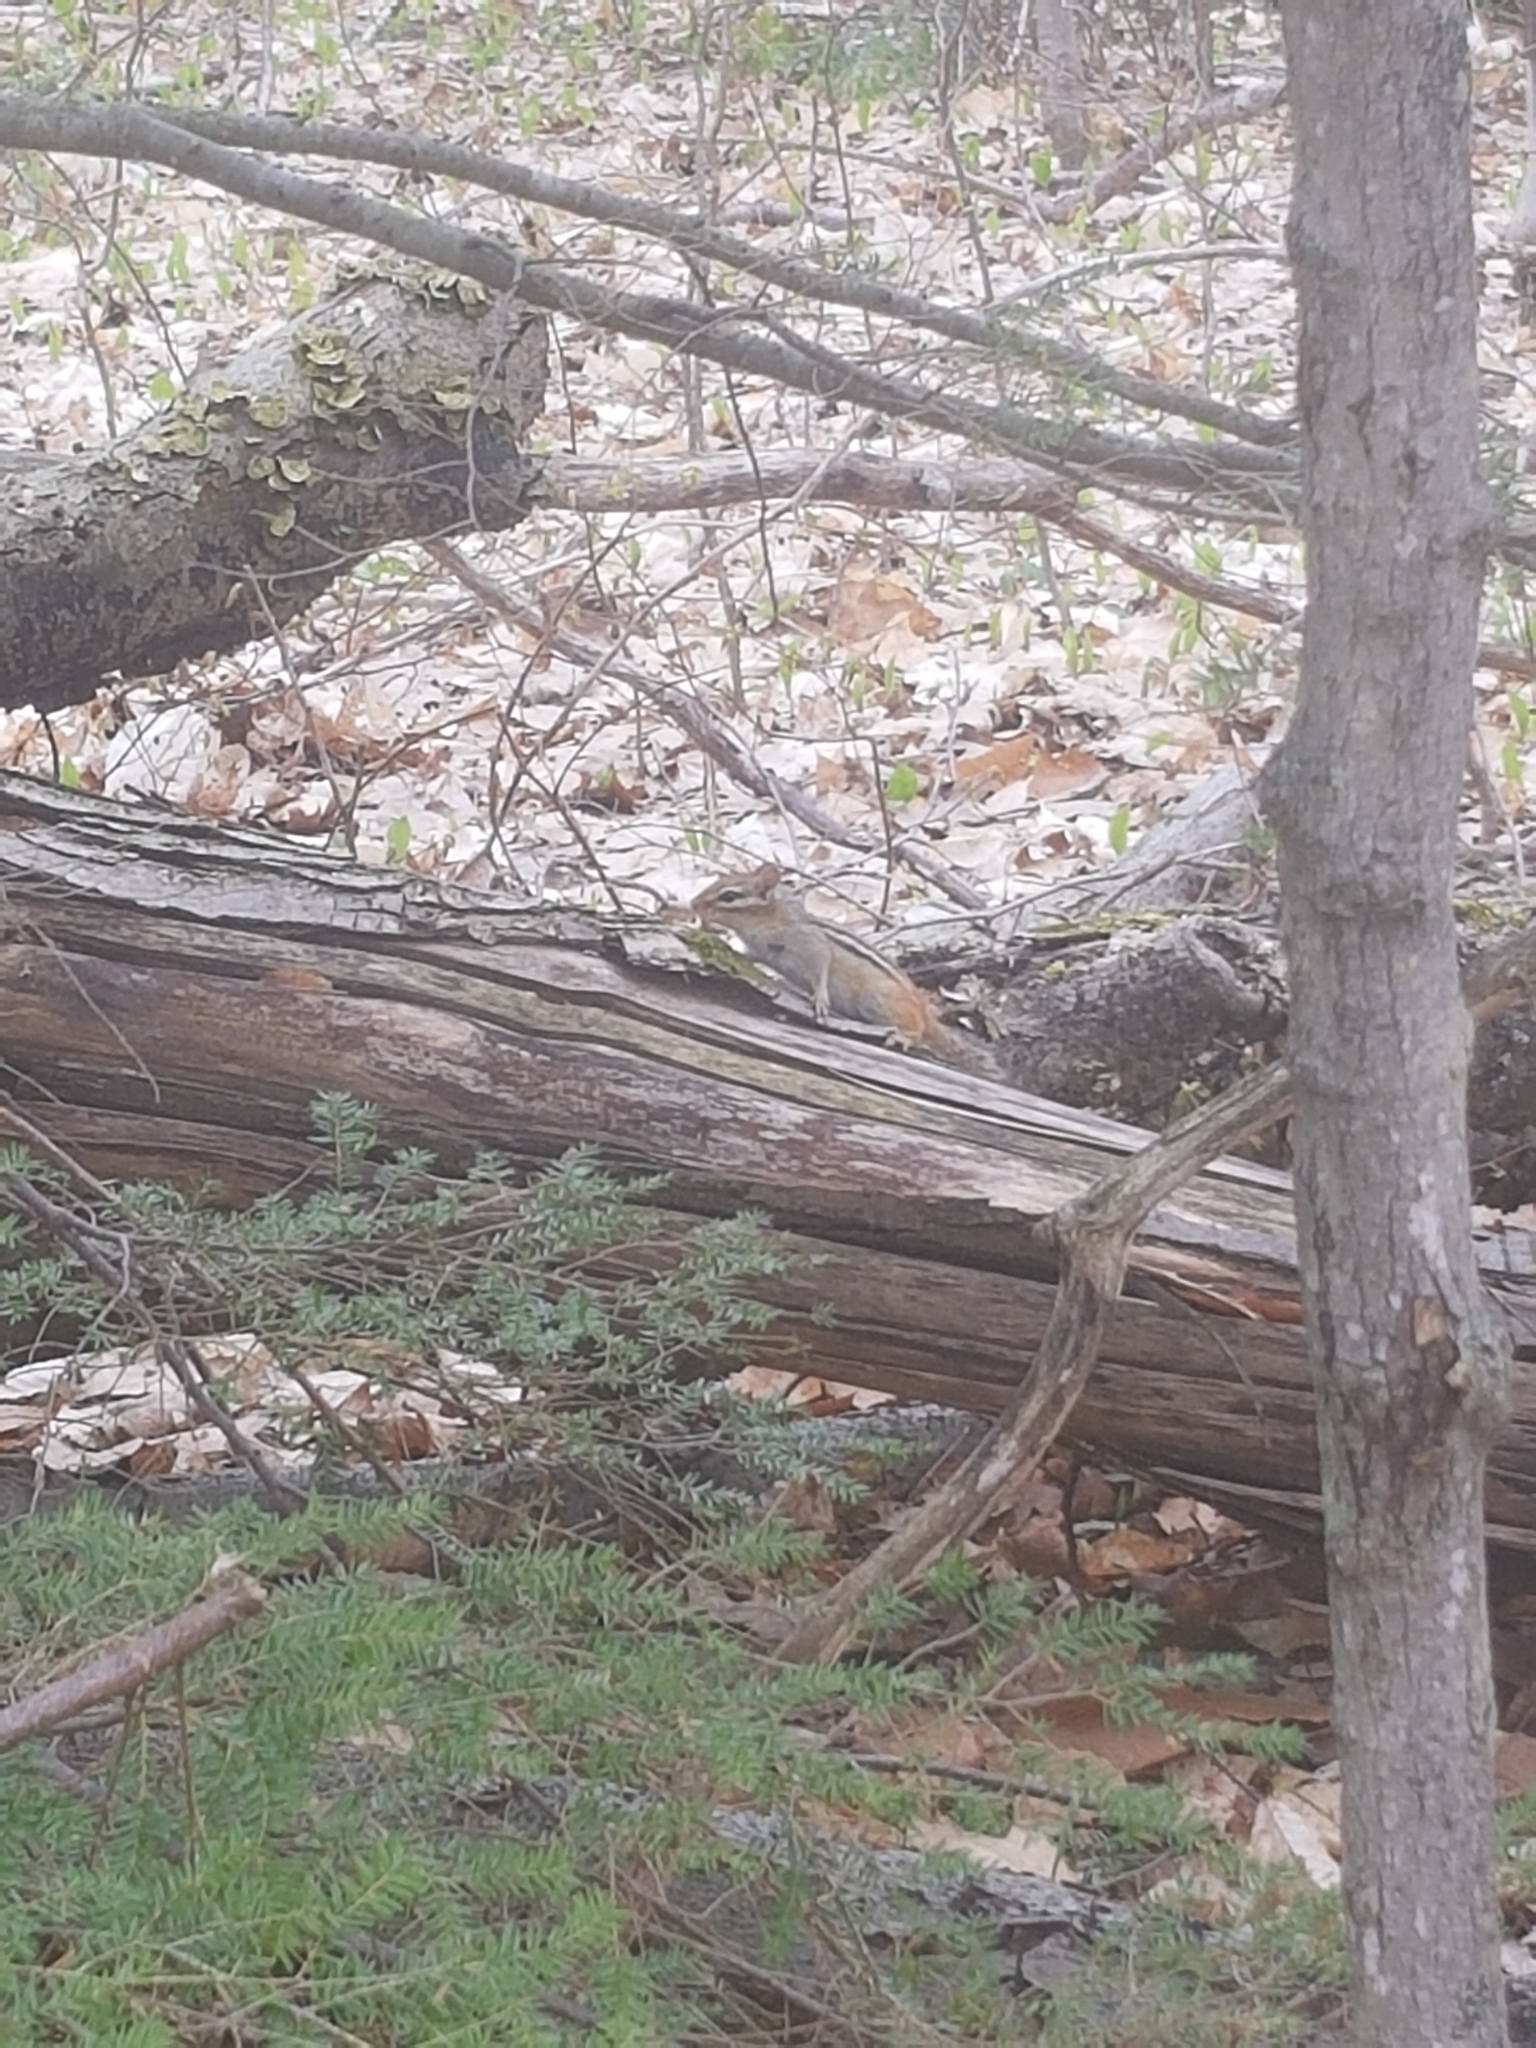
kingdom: Animalia
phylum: Chordata
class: Mammalia
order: Rodentia
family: Sciuridae
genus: Tamias
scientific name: Tamias striatus
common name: Eastern chipmunk
